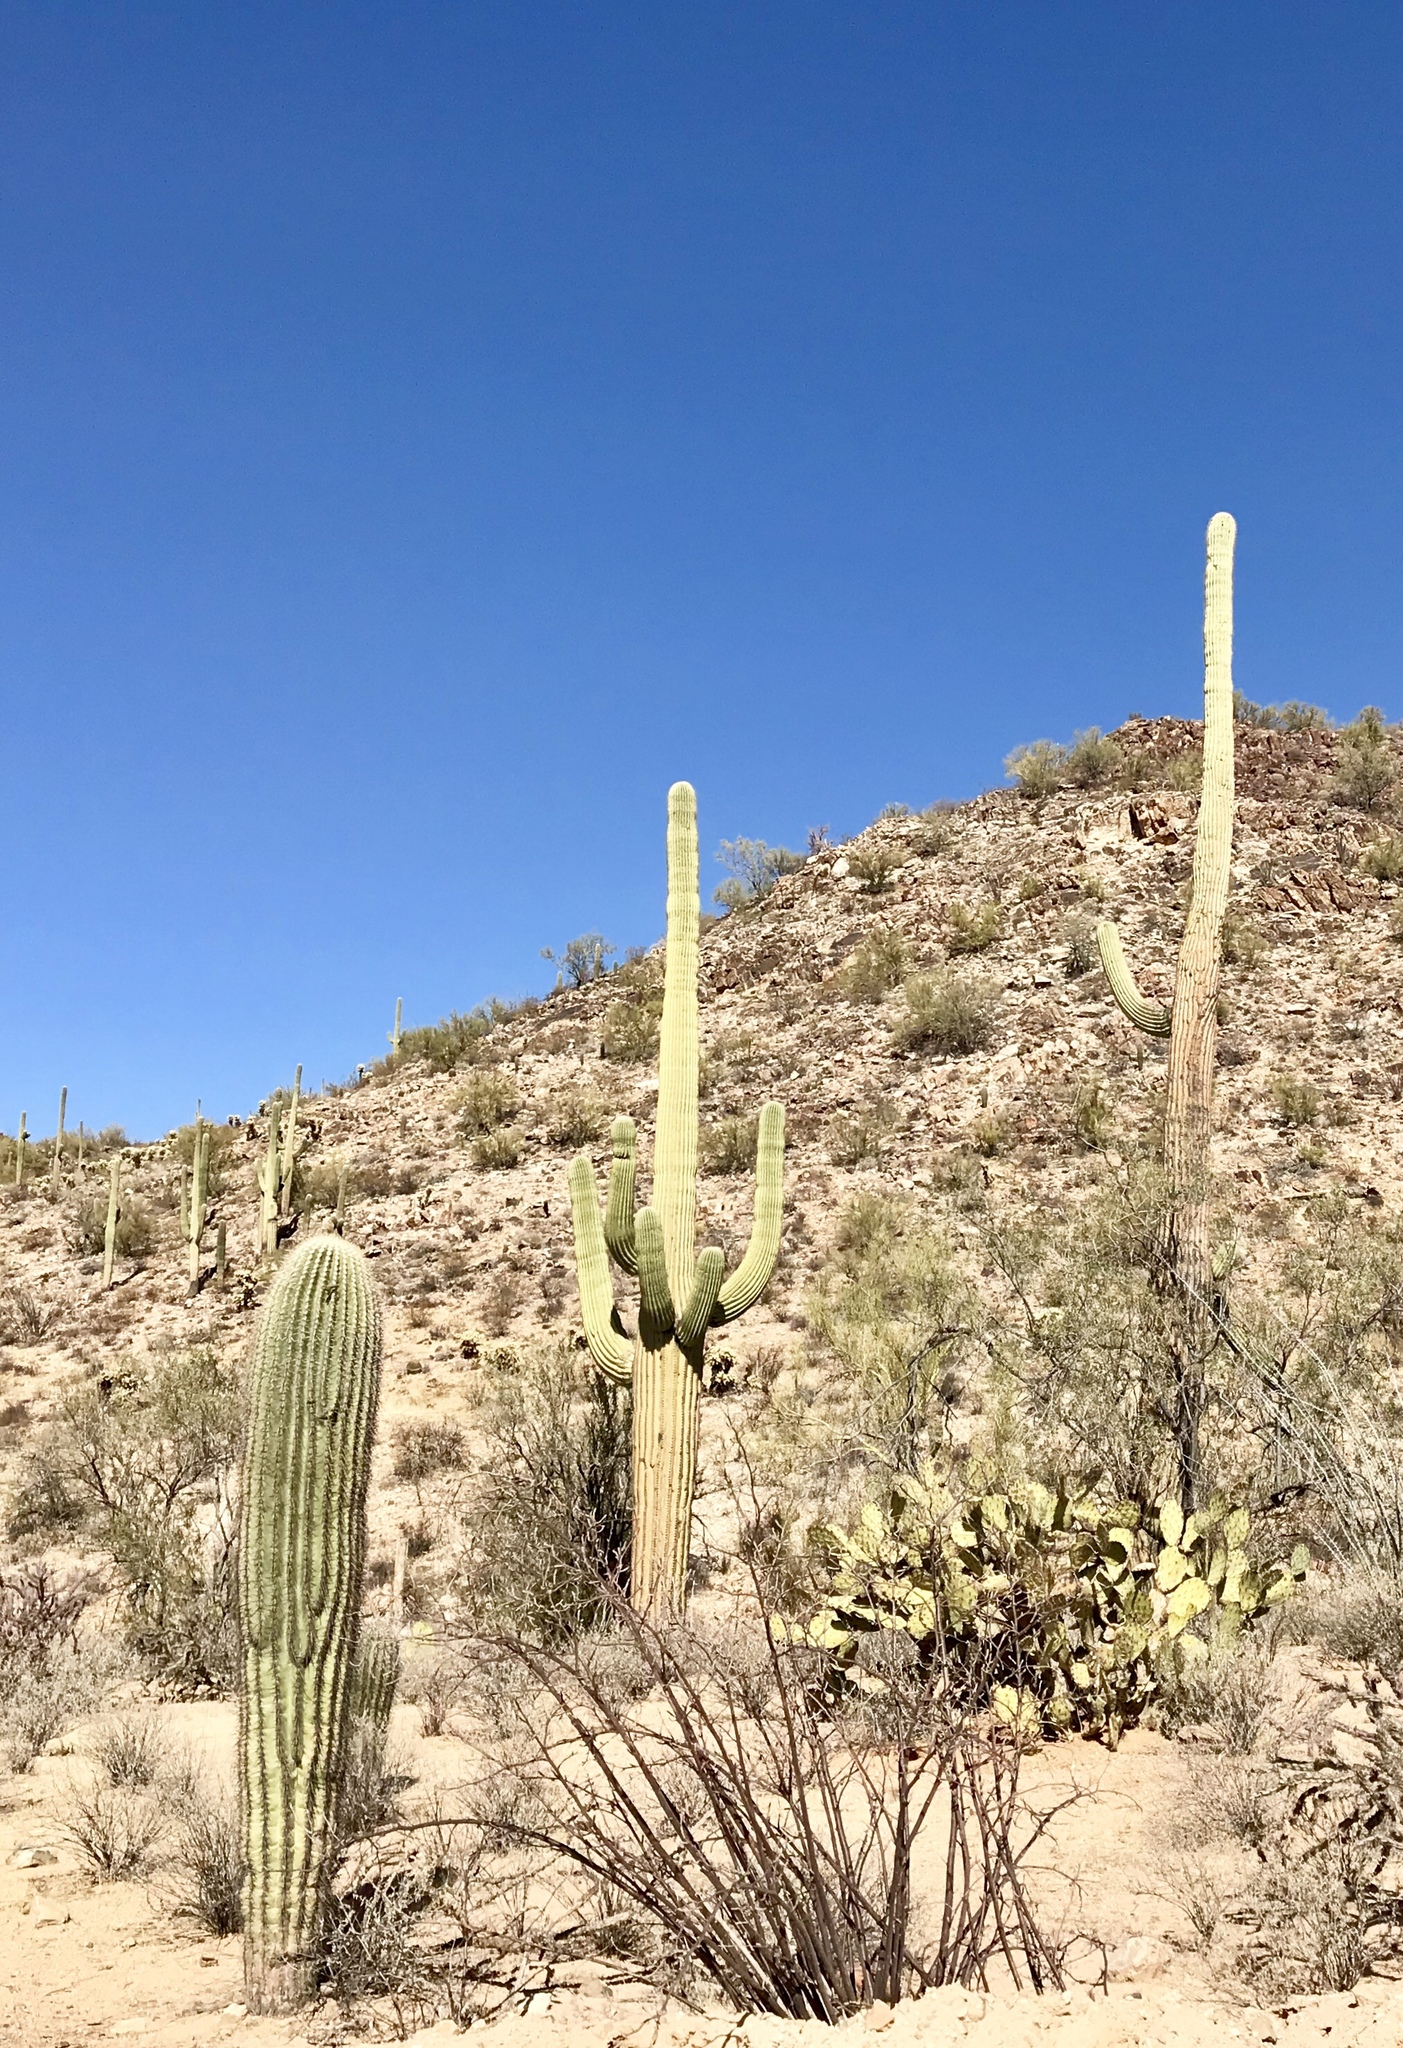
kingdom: Plantae
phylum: Tracheophyta
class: Magnoliopsida
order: Caryophyllales
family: Cactaceae
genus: Carnegiea
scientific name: Carnegiea gigantea
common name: Saguaro
